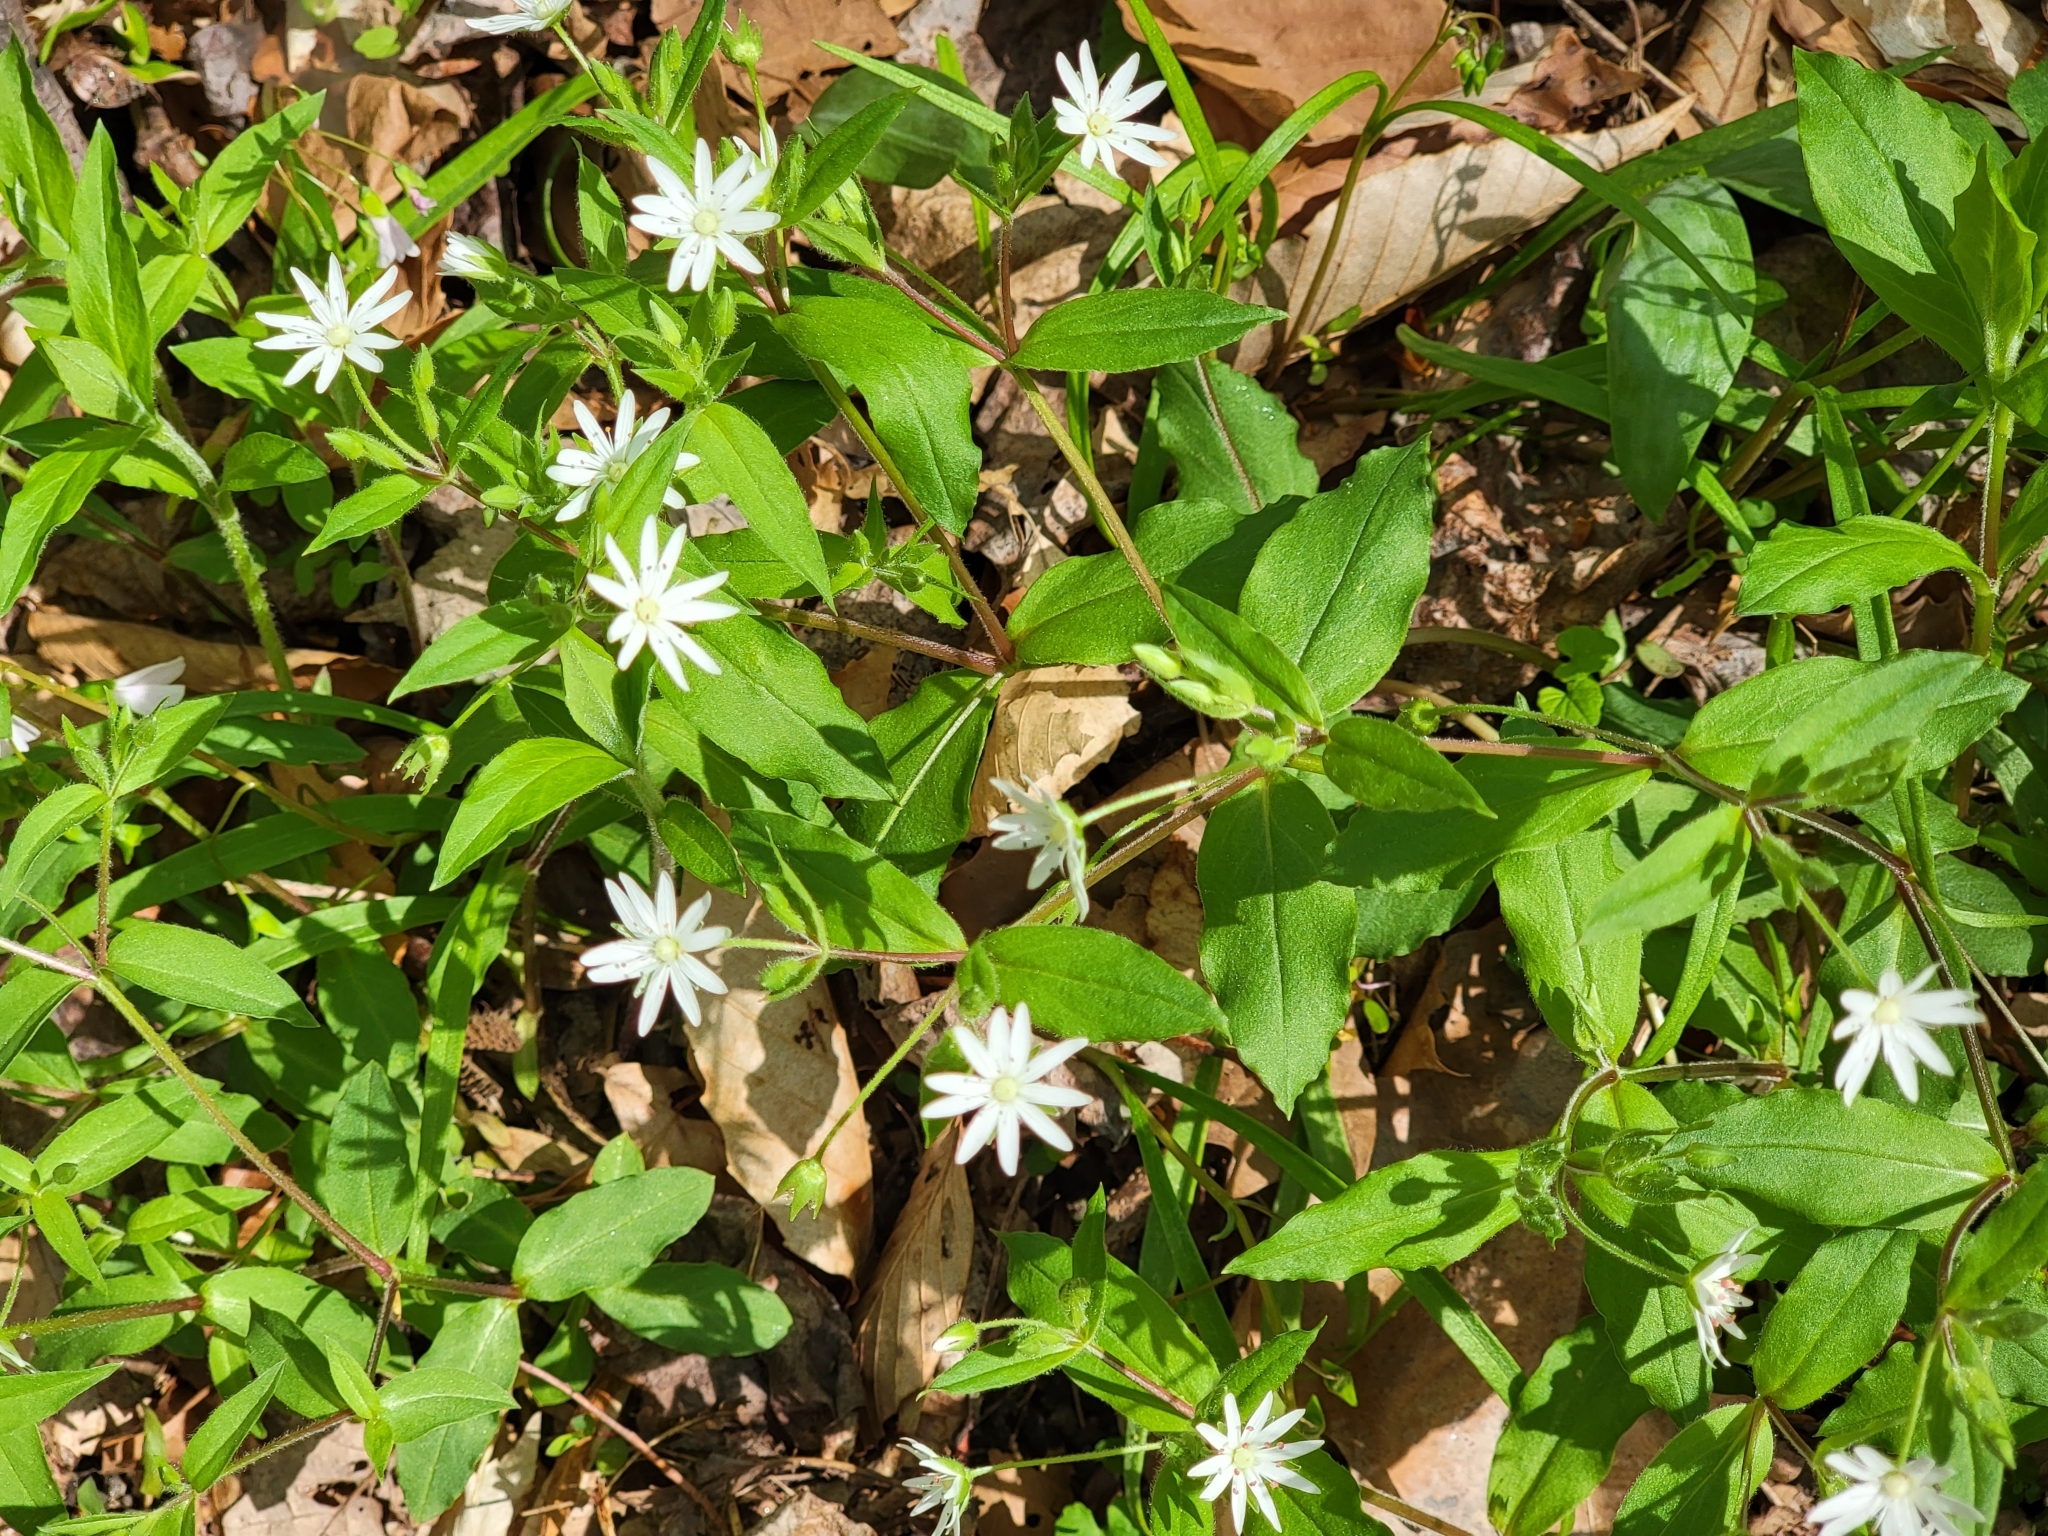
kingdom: Plantae
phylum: Tracheophyta
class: Magnoliopsida
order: Caryophyllales
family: Caryophyllaceae
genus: Stellaria
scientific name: Stellaria pubera
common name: Star chickweed
